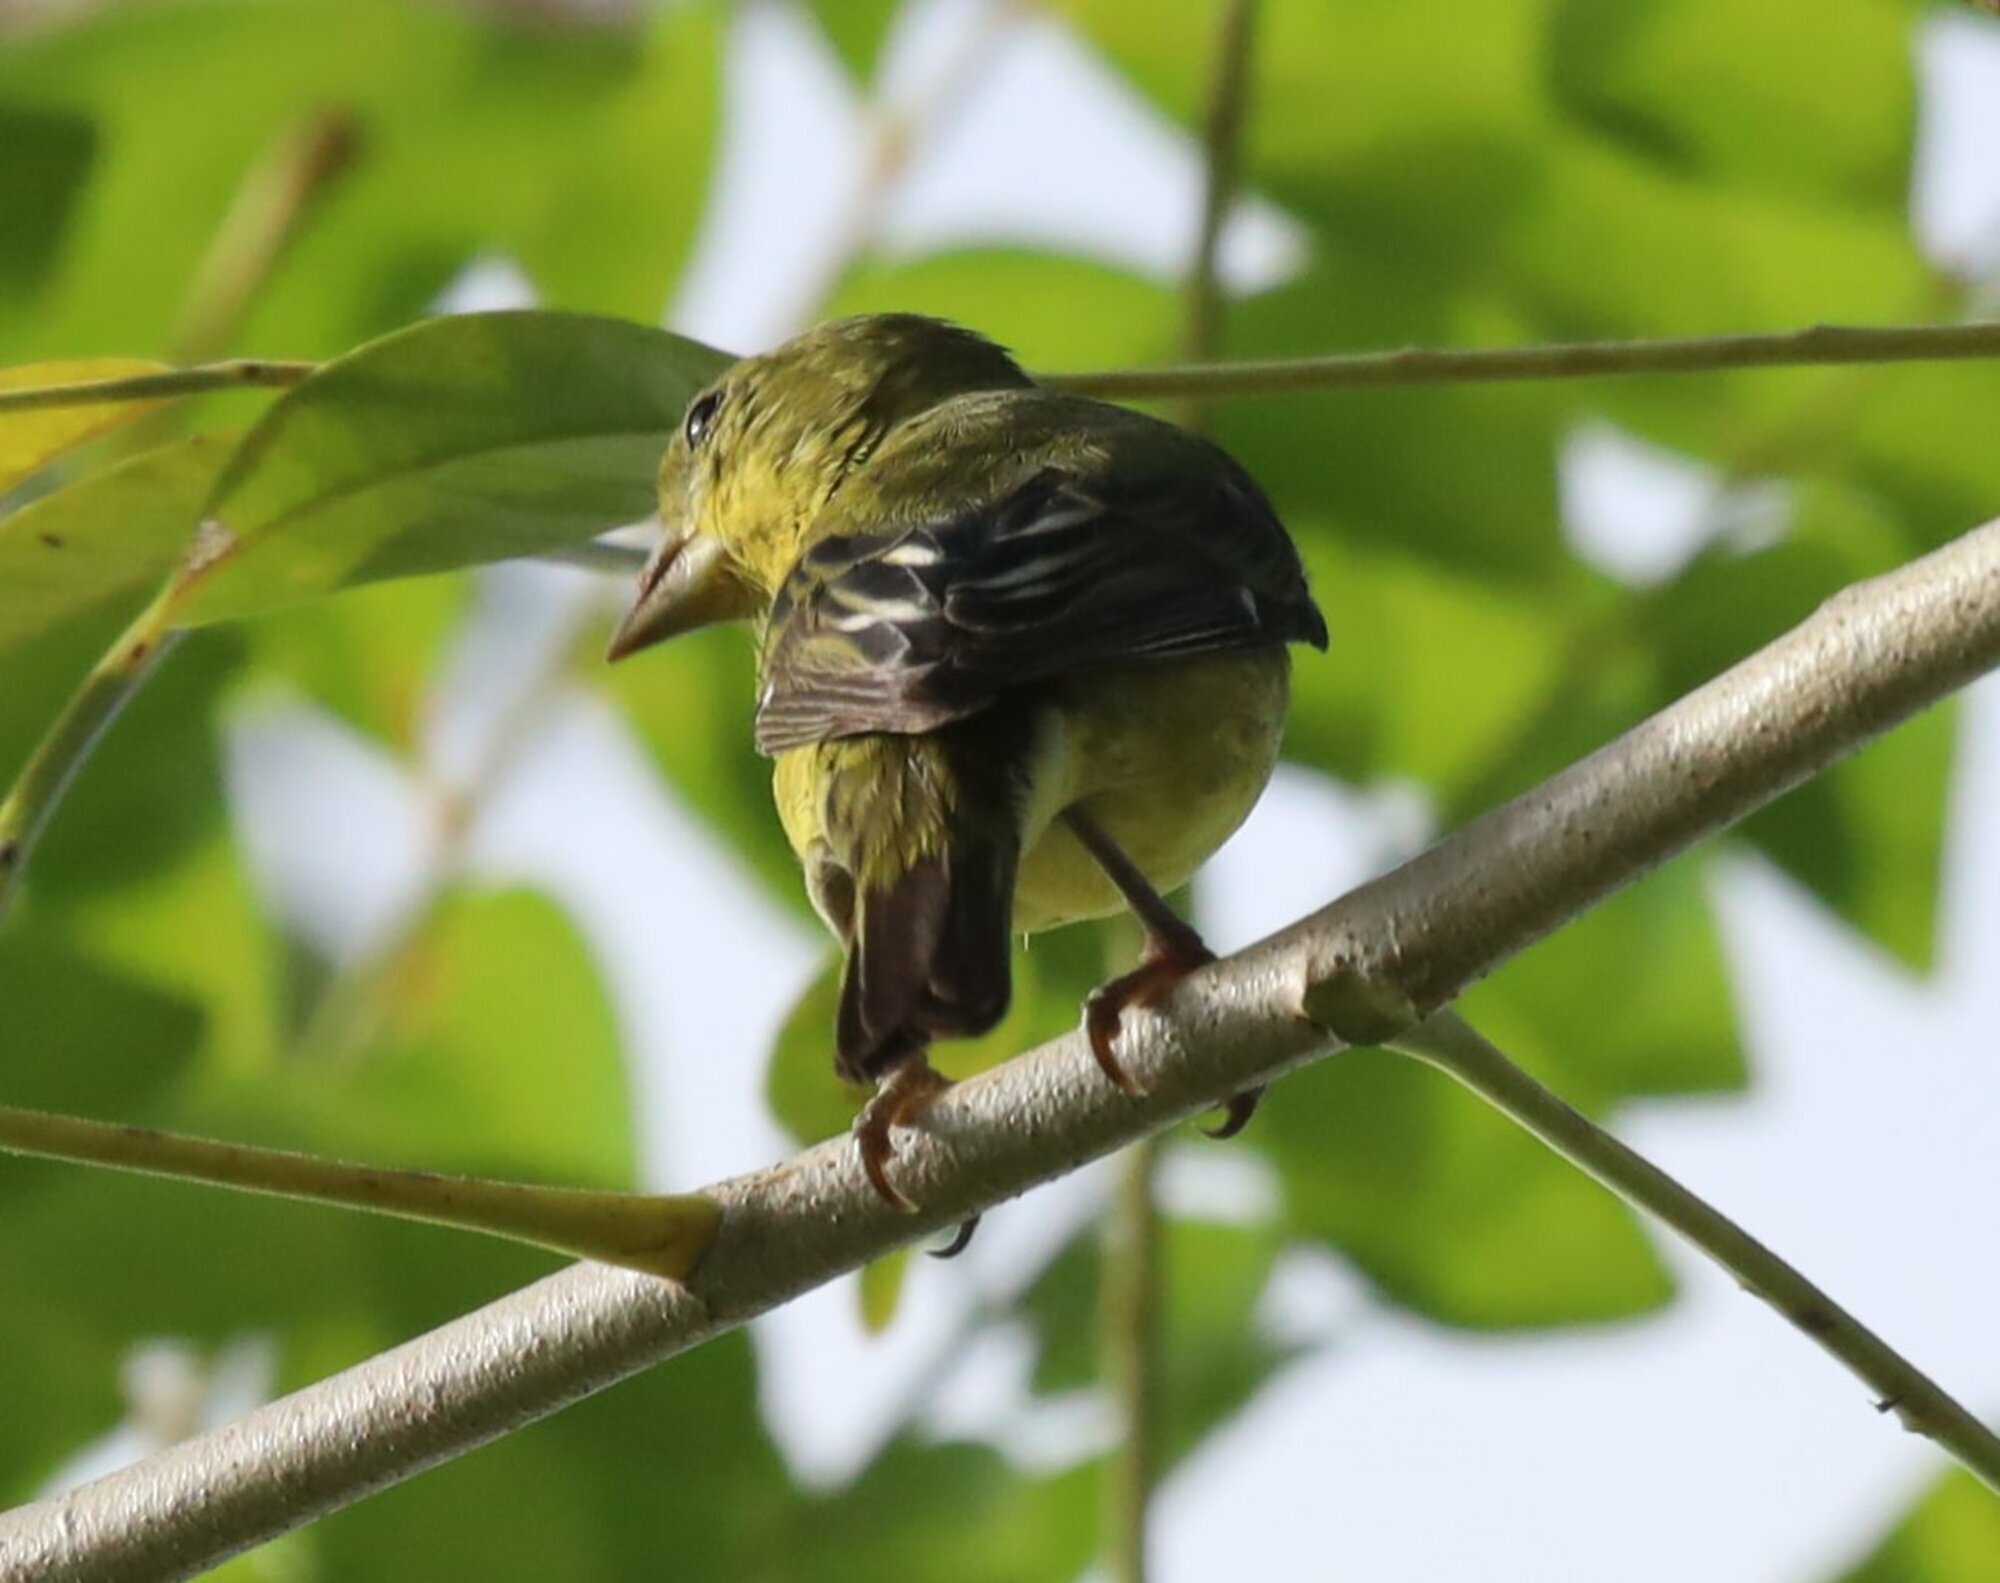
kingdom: Animalia
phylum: Chordata
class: Aves
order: Passeriformes
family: Fringillidae
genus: Spinus
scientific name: Spinus psaltria
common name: Lesser goldfinch
